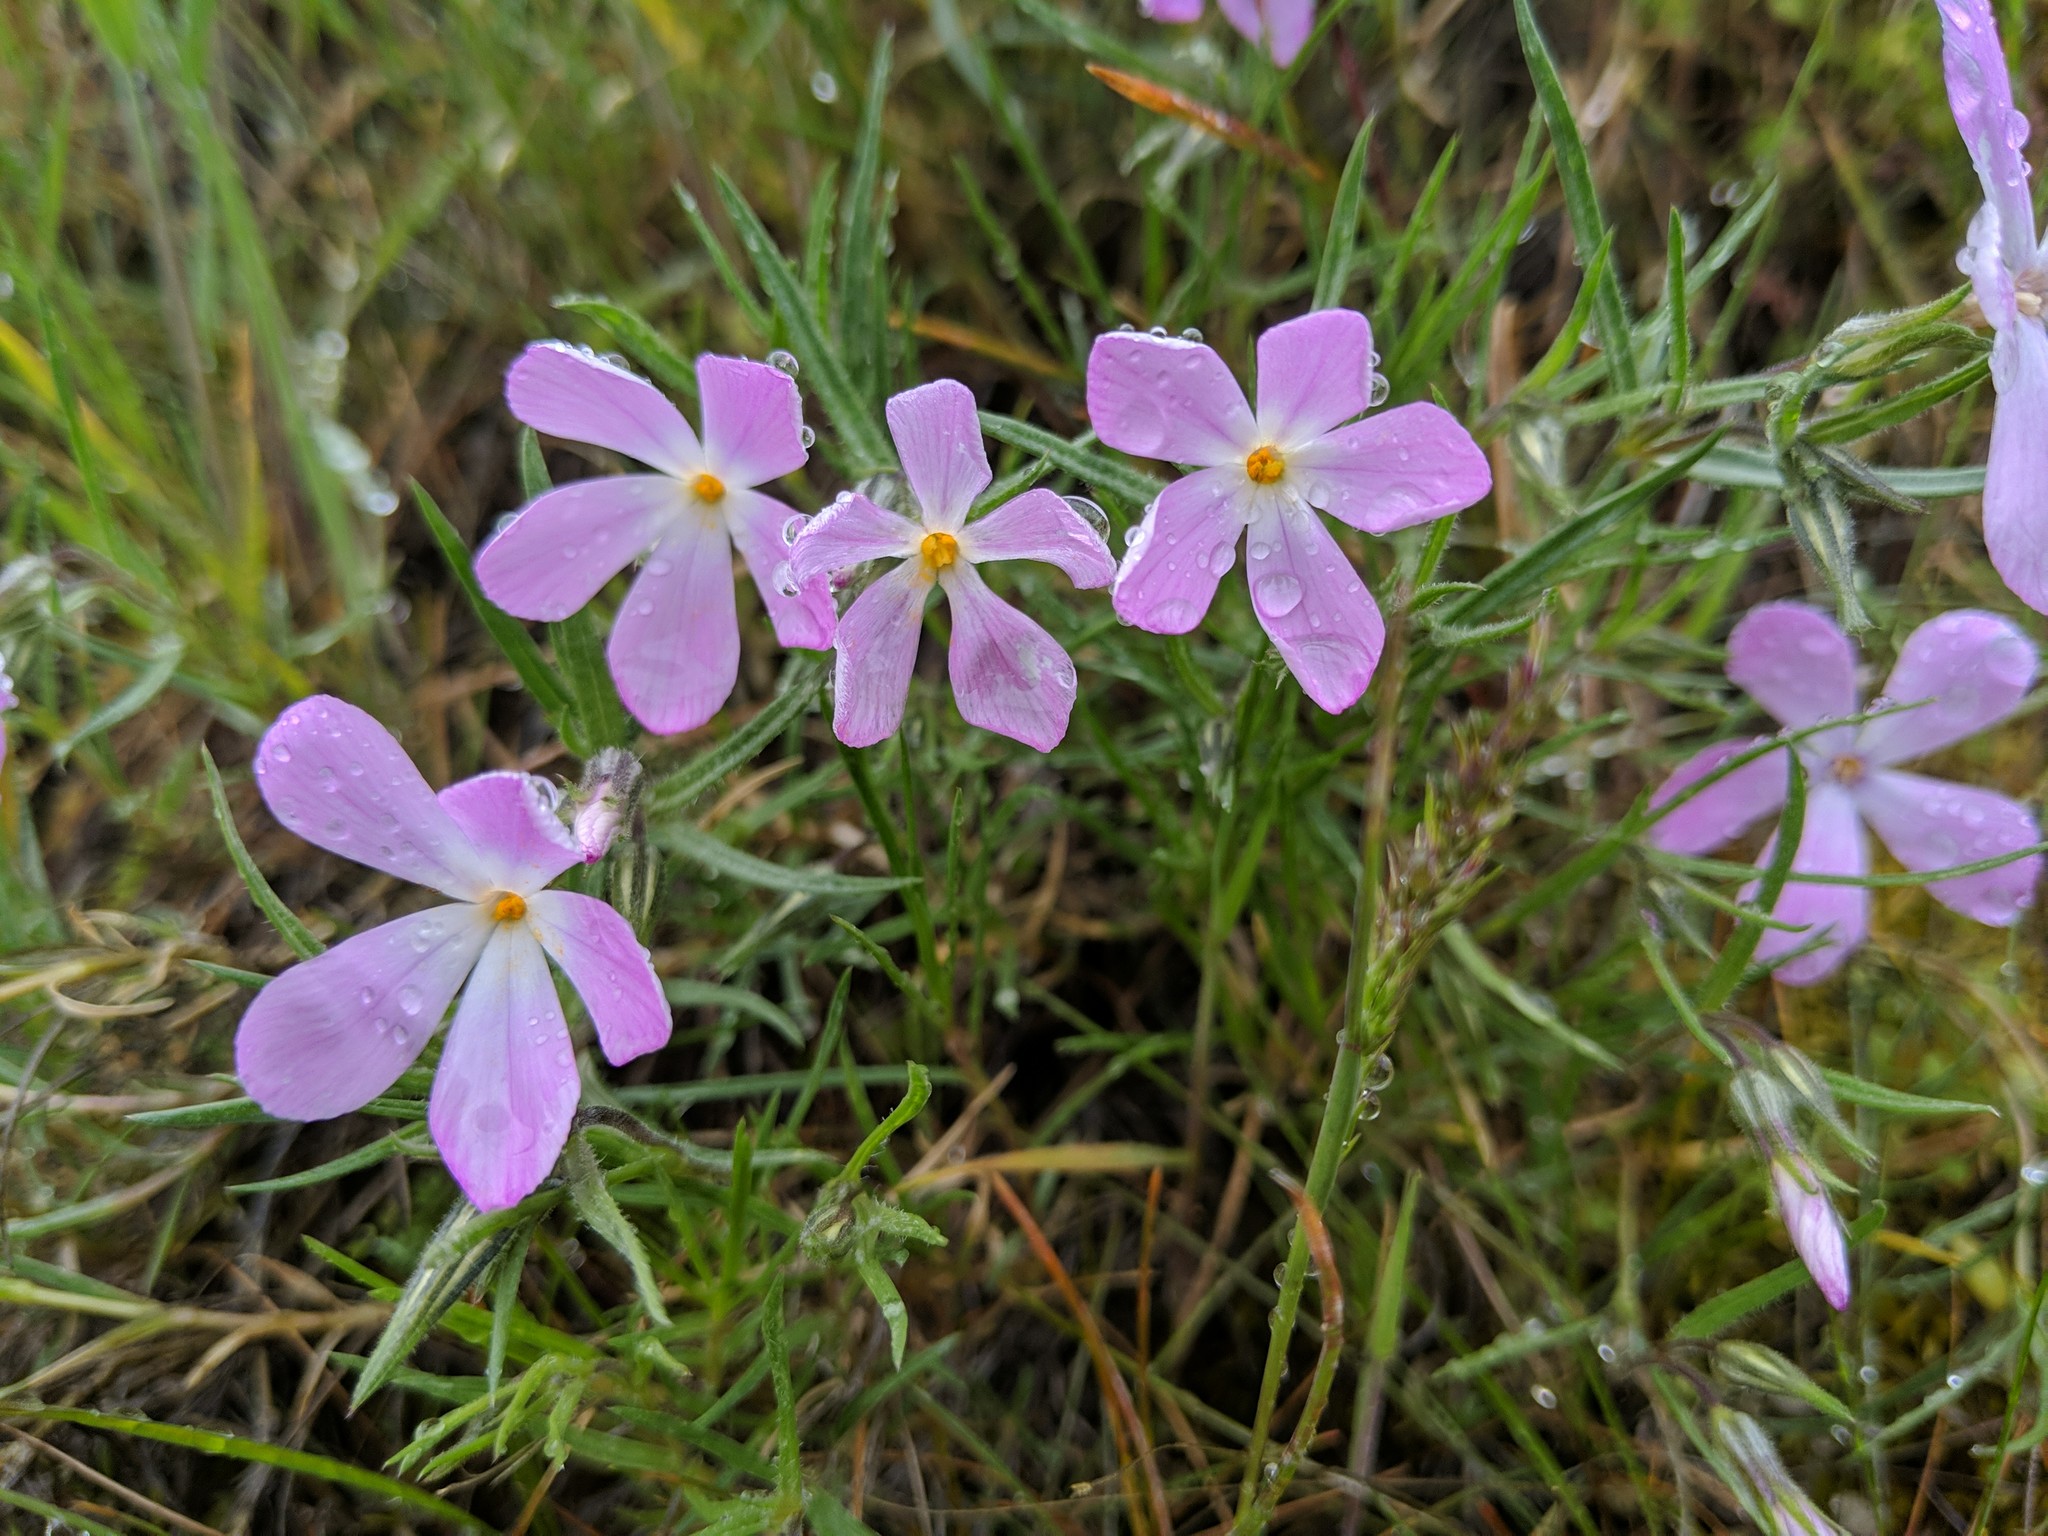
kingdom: Plantae
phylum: Tracheophyta
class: Magnoliopsida
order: Ericales
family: Polemoniaceae
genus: Phlox
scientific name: Phlox longifolia
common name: Longleaf phlox
